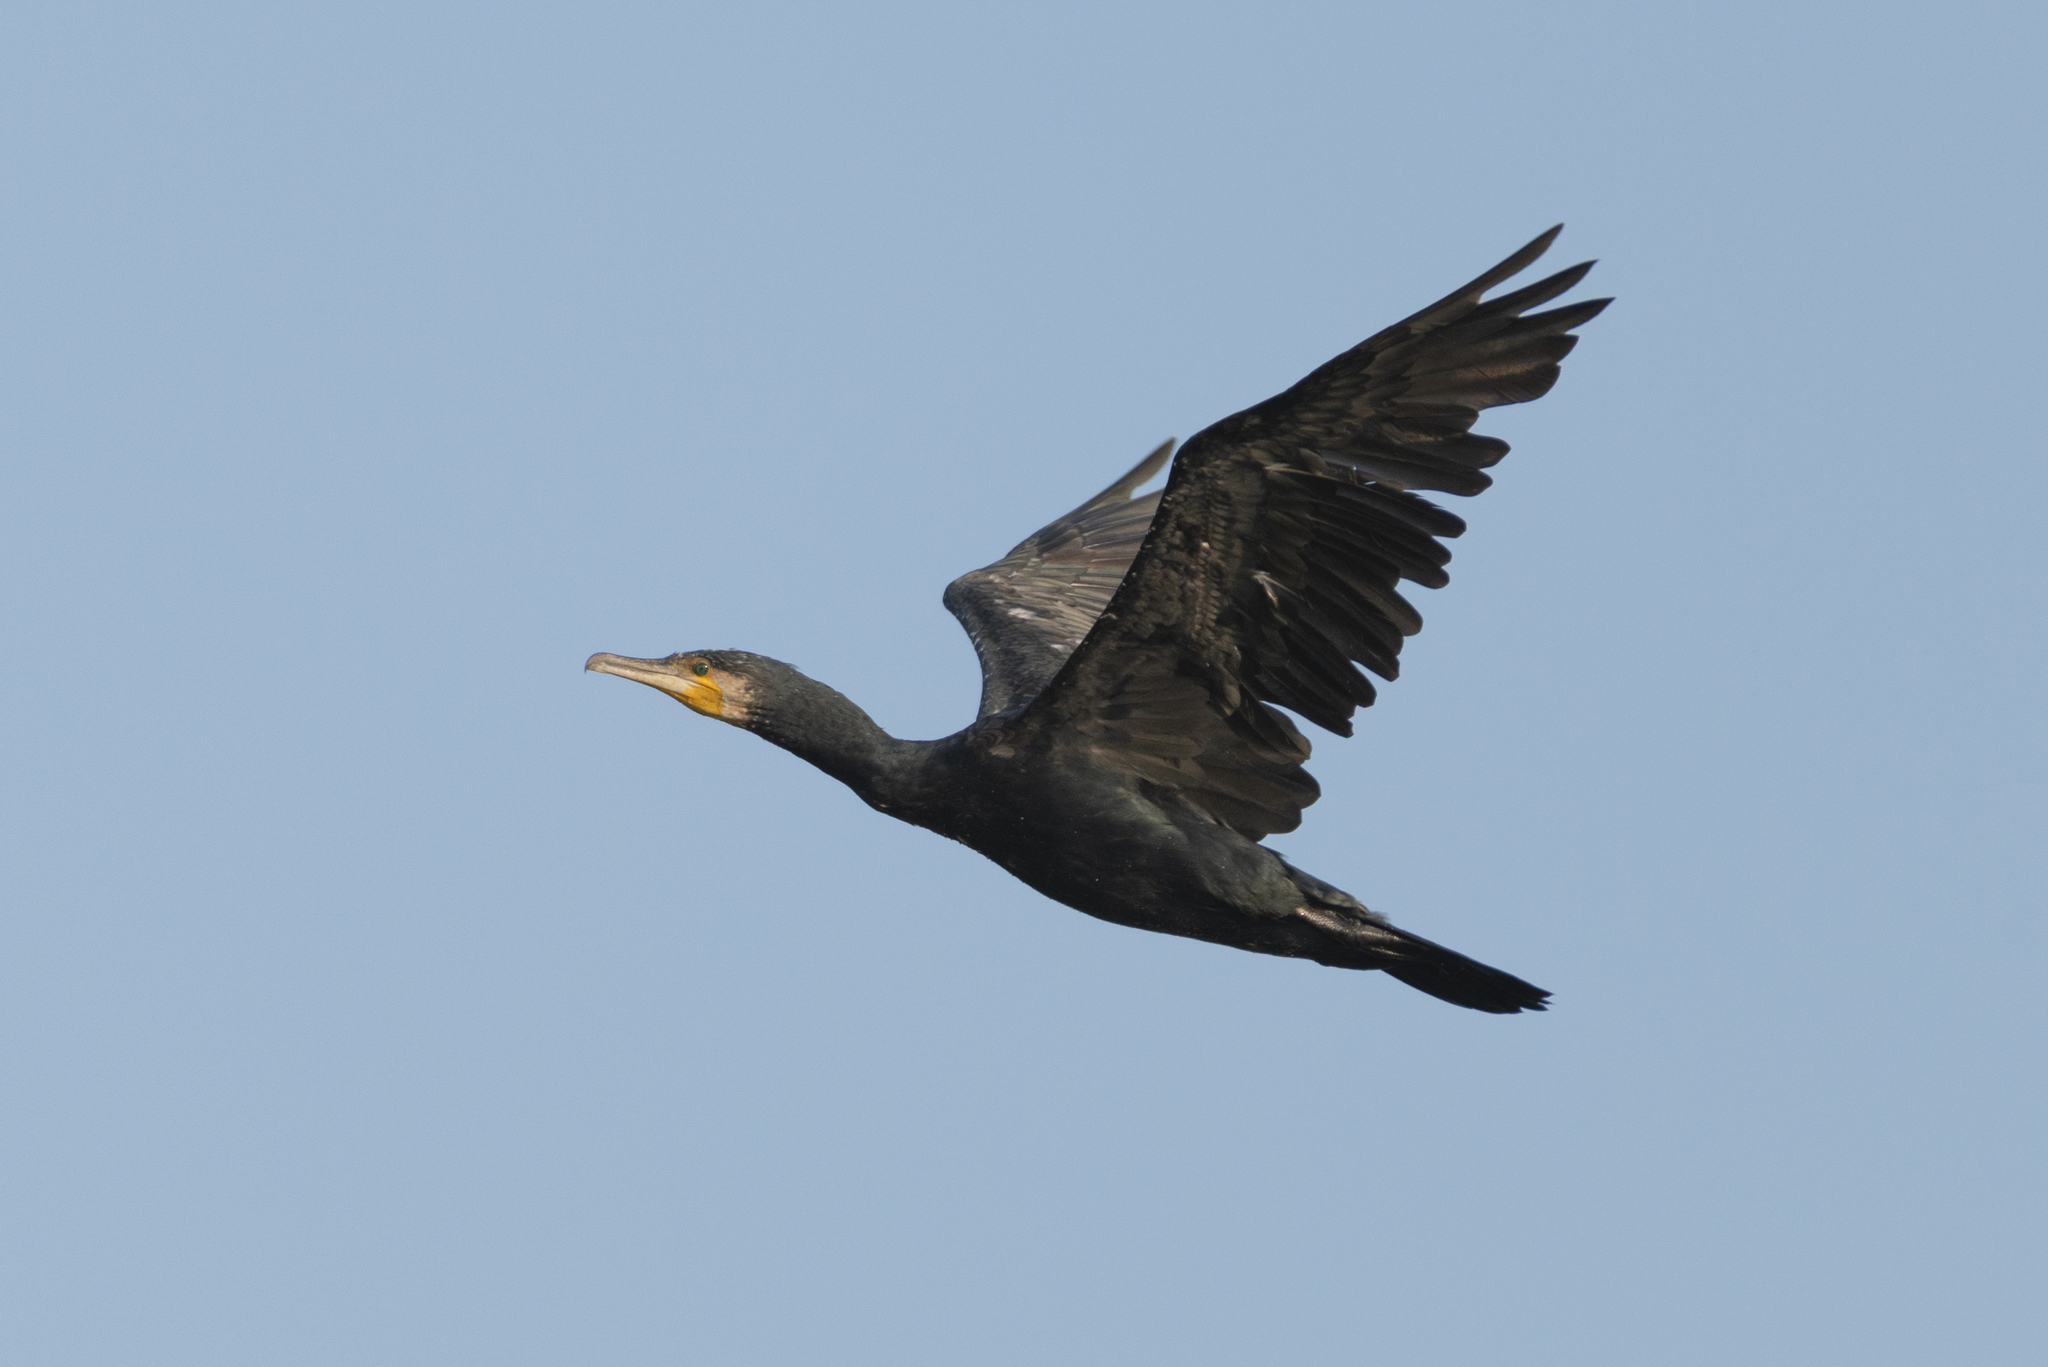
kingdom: Animalia
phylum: Chordata
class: Aves
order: Suliformes
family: Phalacrocoracidae
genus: Phalacrocorax
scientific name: Phalacrocorax carbo
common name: Great cormorant
